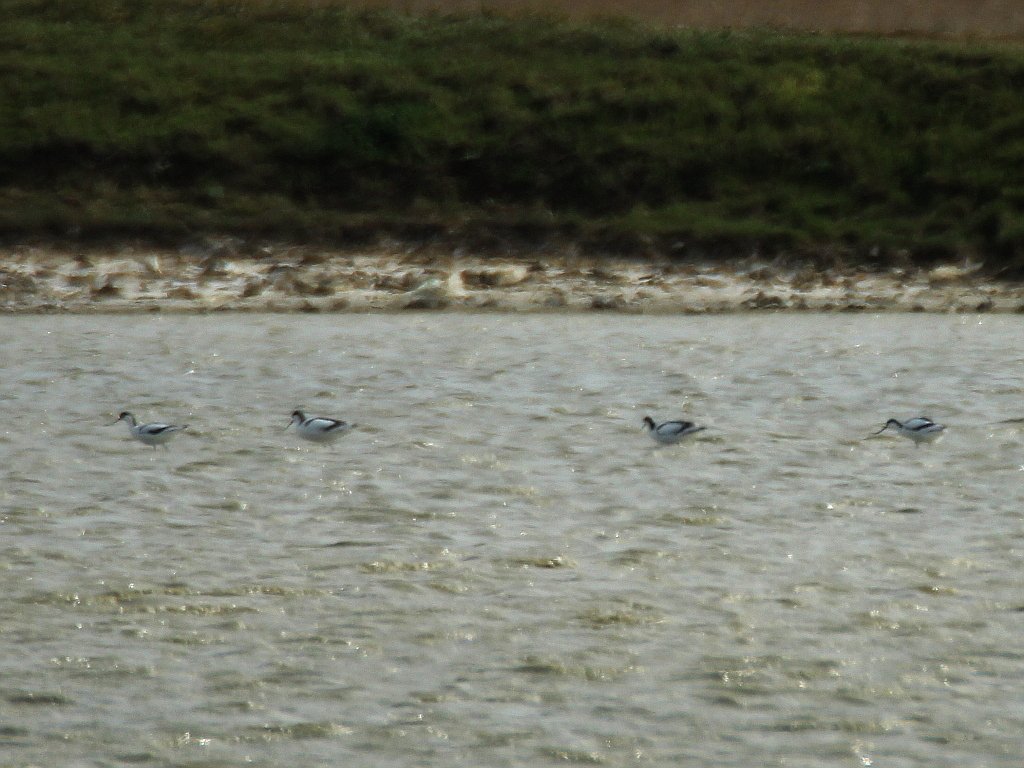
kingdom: Animalia
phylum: Chordata
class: Aves
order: Charadriiformes
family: Recurvirostridae
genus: Recurvirostra
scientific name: Recurvirostra avosetta
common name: Pied avocet
